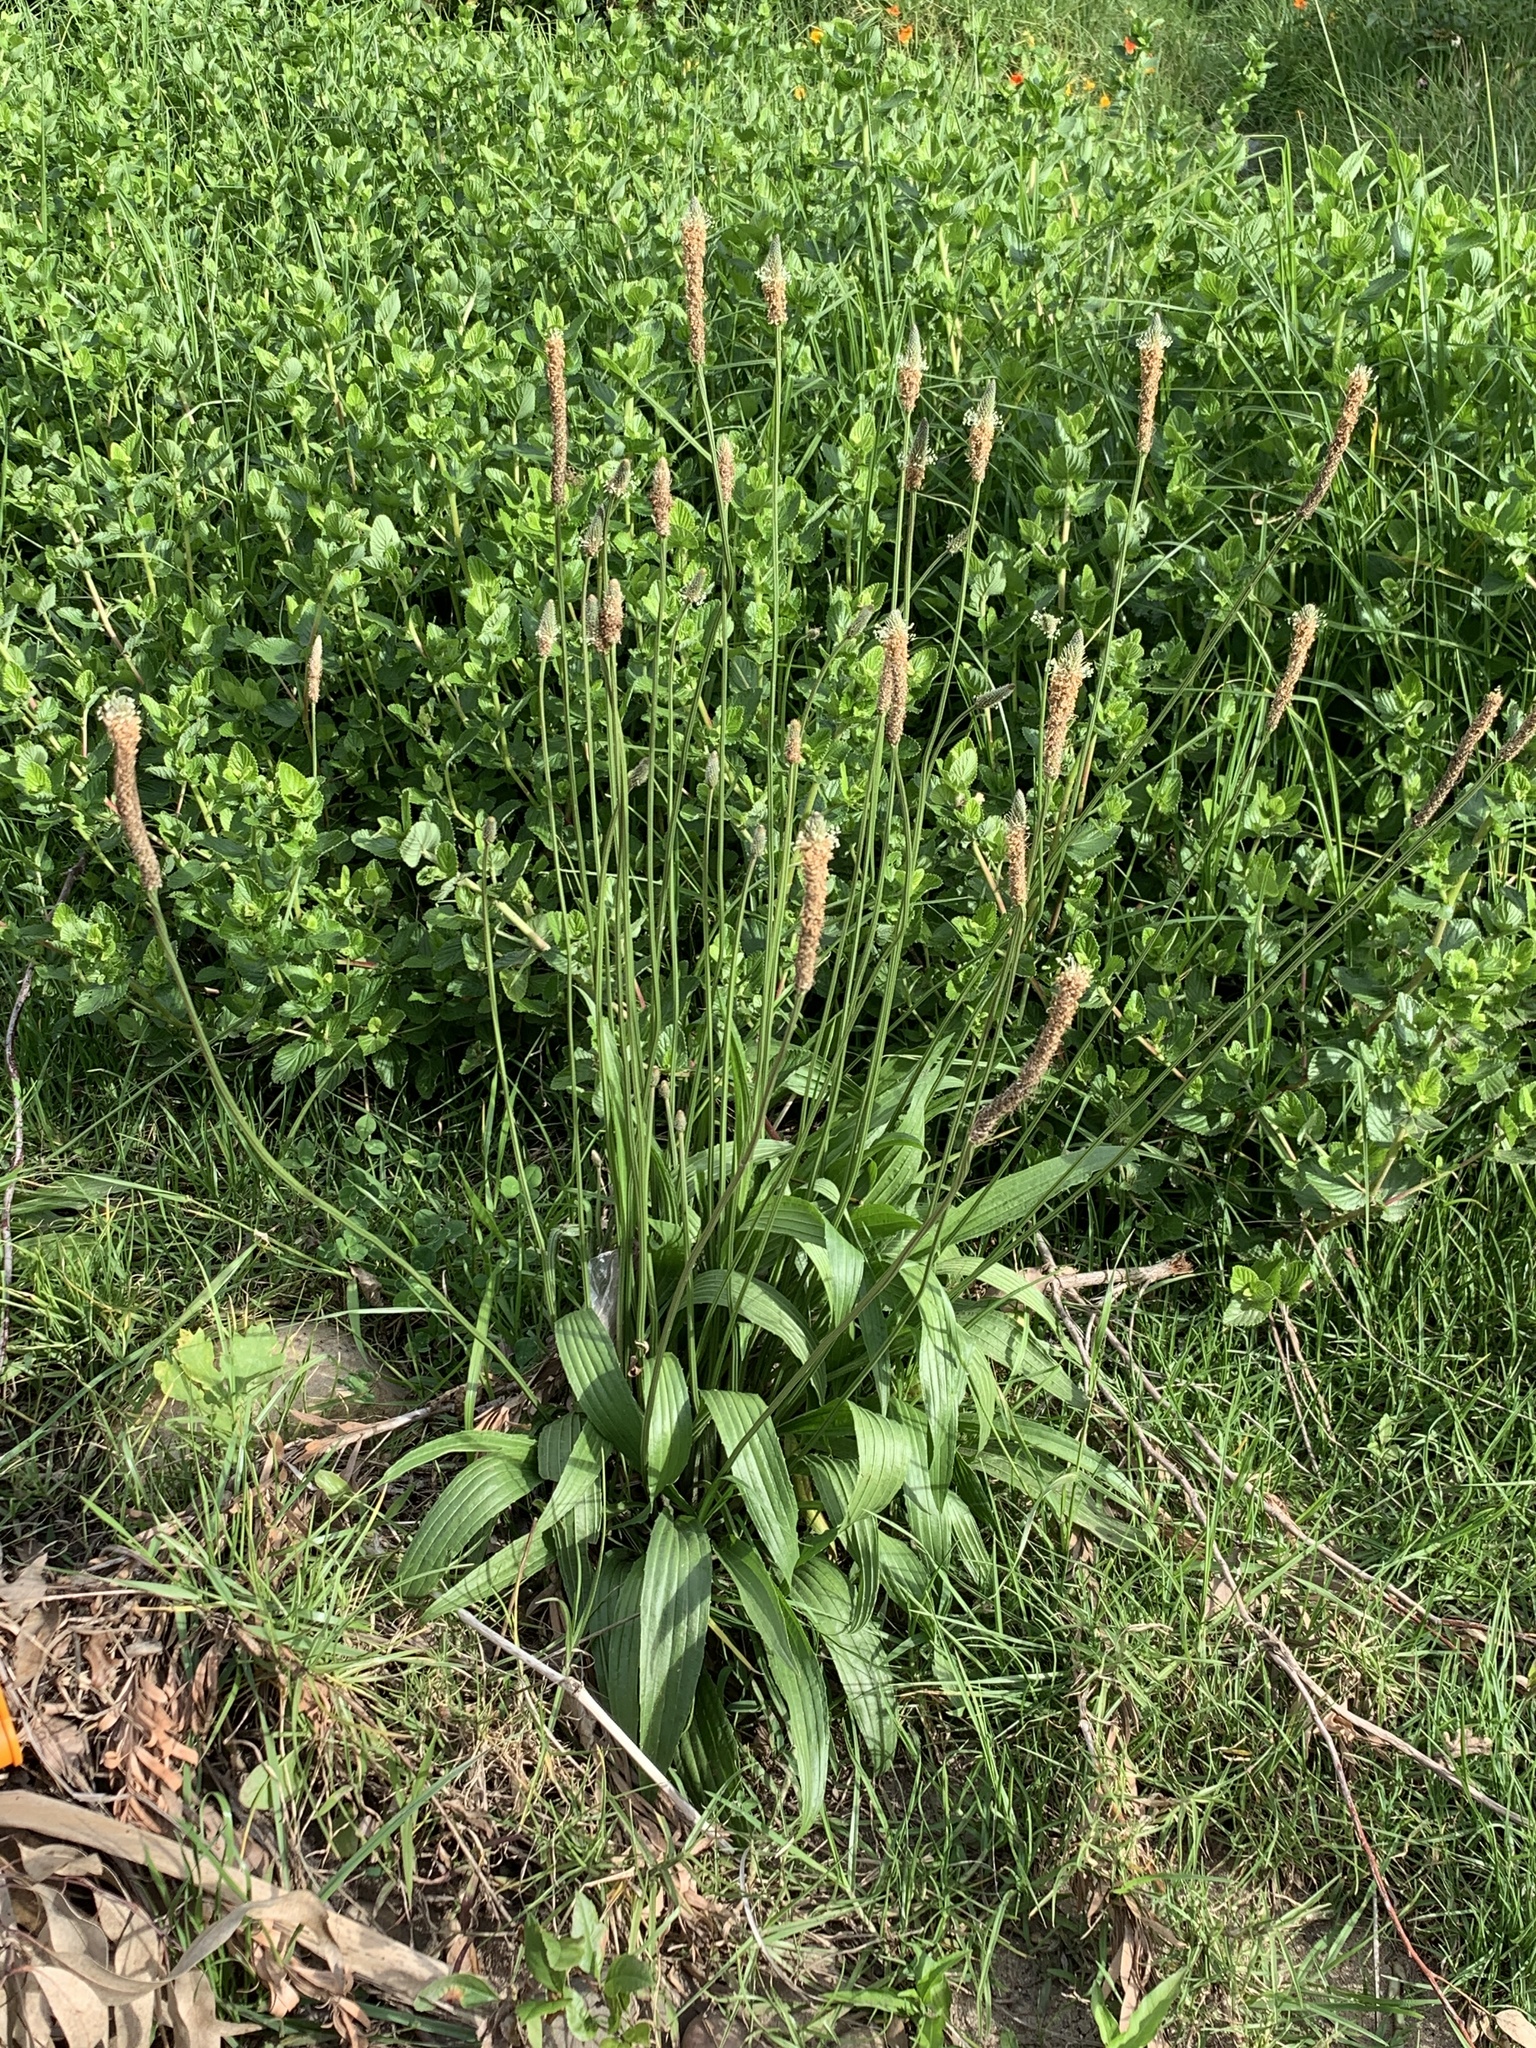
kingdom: Plantae
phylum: Tracheophyta
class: Magnoliopsida
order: Lamiales
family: Plantaginaceae
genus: Plantago
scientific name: Plantago lanceolata
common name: Ribwort plantain
